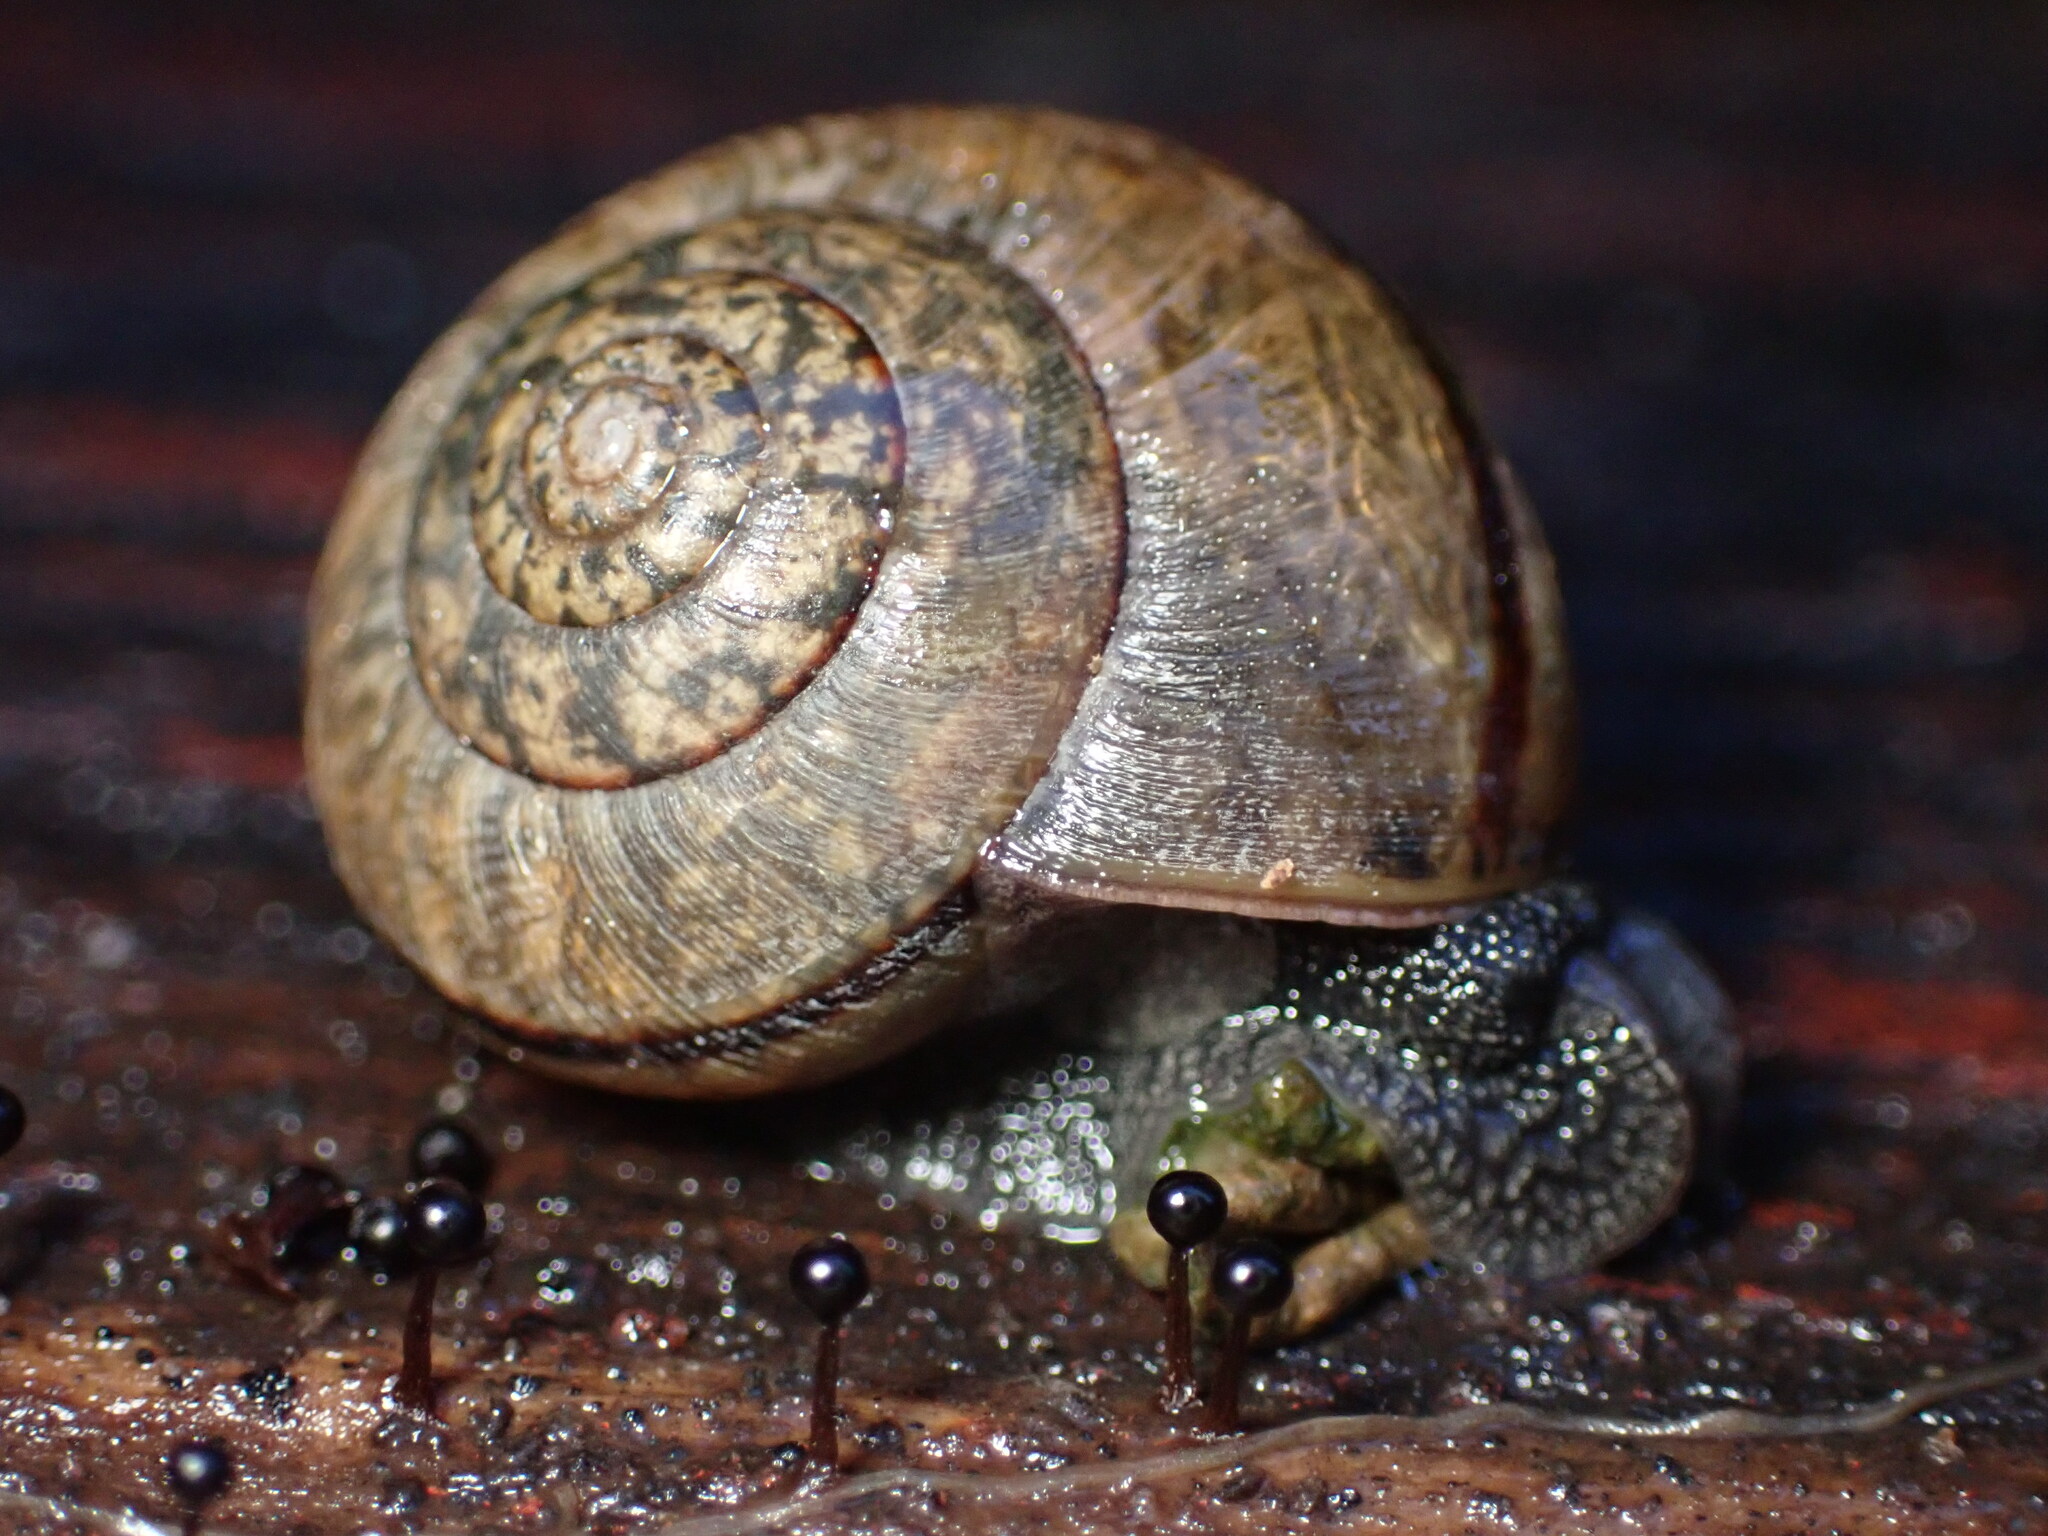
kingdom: Animalia
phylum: Mollusca
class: Gastropoda
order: Stylommatophora
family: Xanthonychidae
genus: Helminthoglypta
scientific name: Helminthoglypta nickliniana
